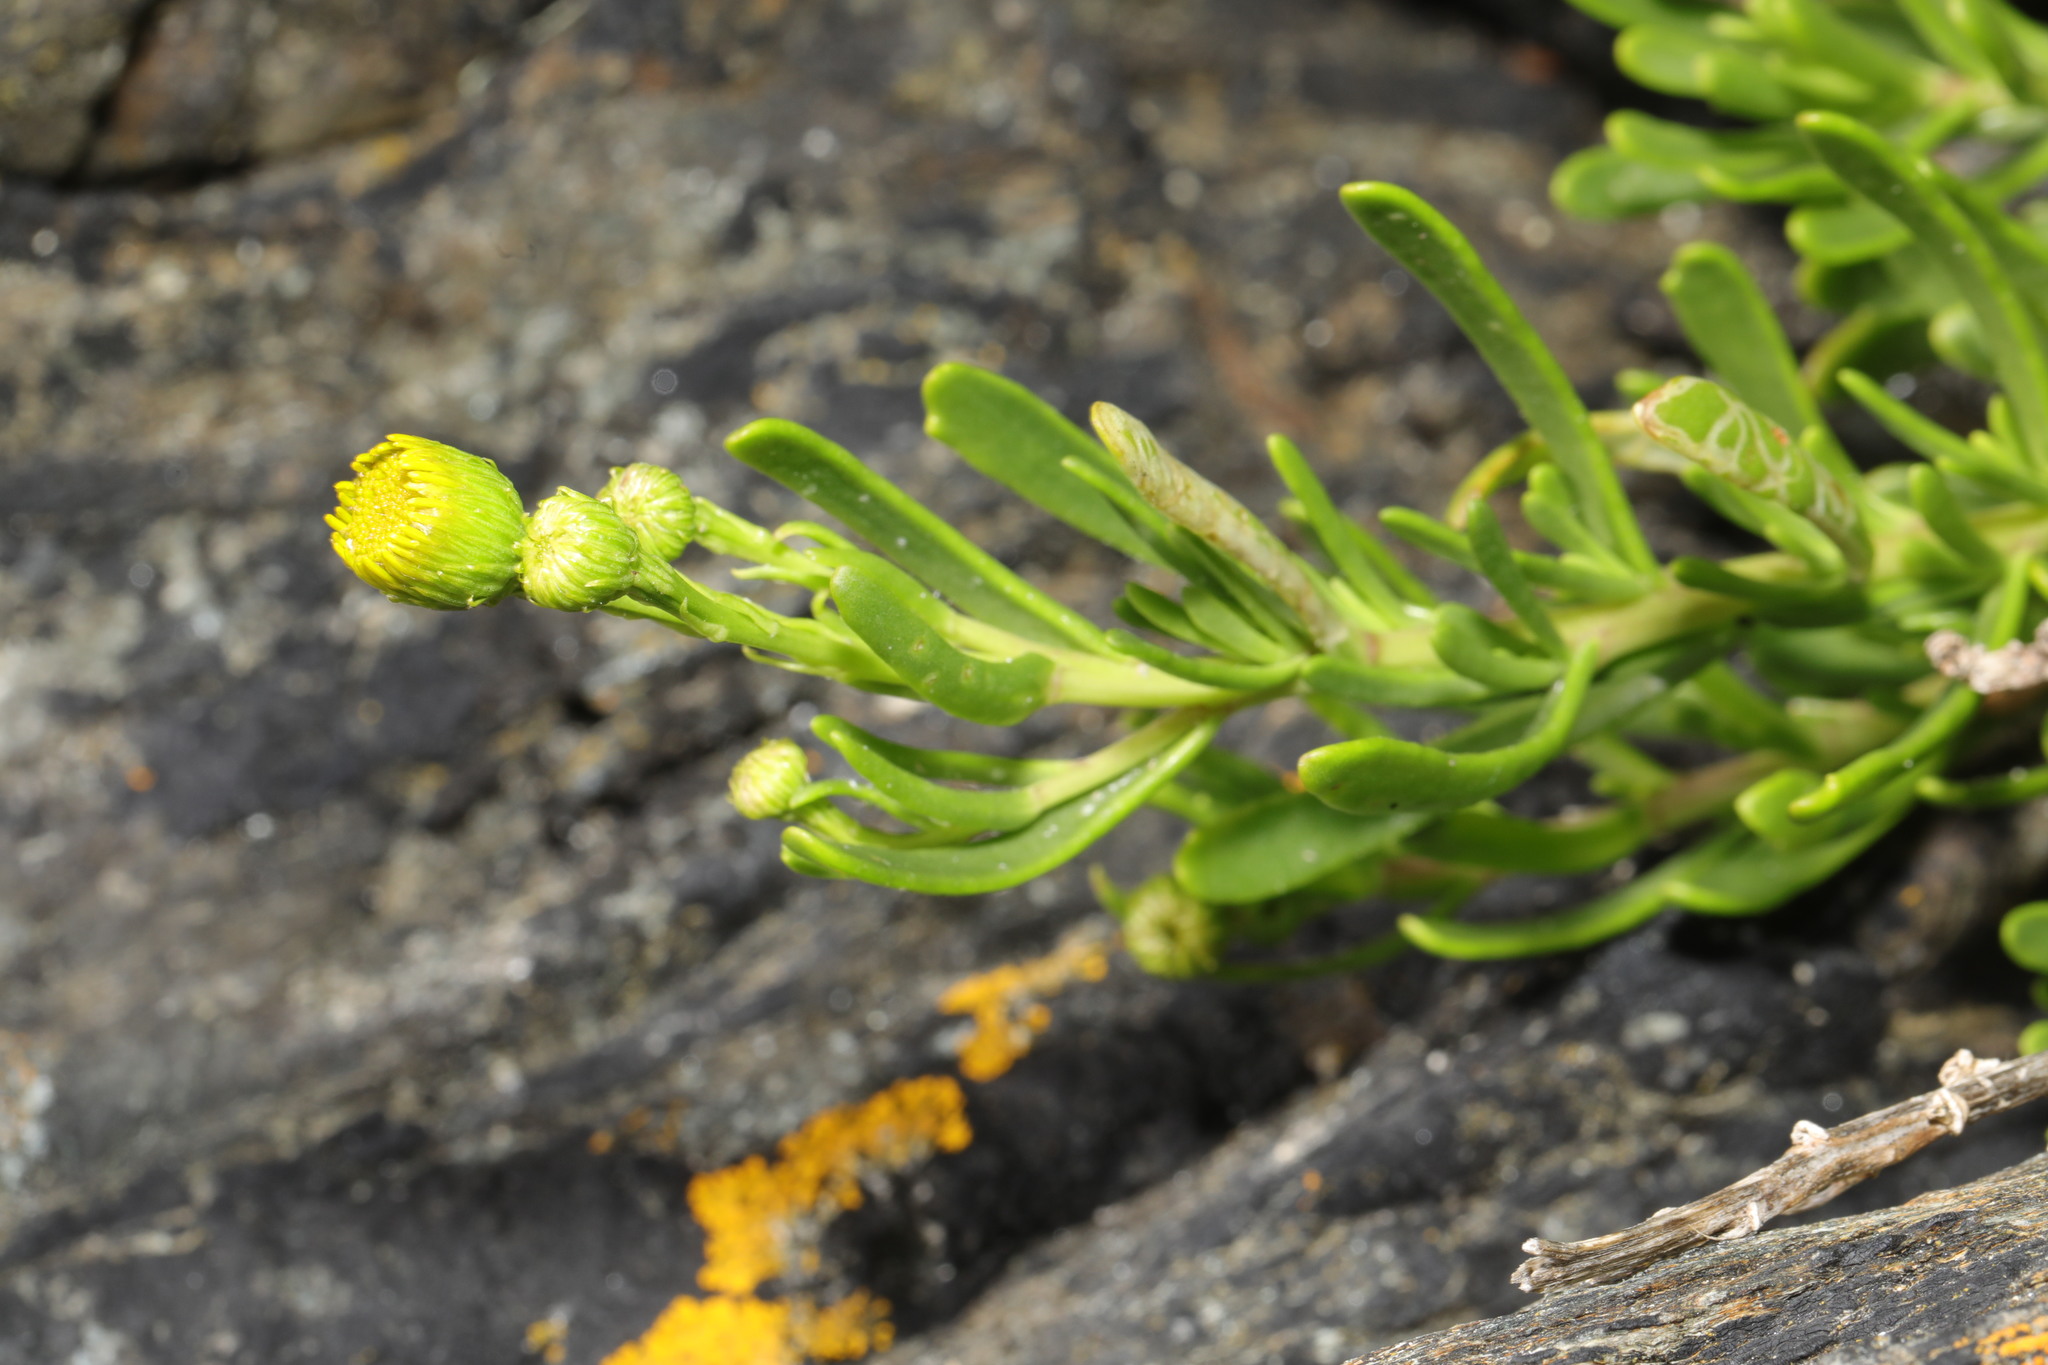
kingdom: Plantae
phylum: Tracheophyta
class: Magnoliopsida
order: Asterales
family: Asteraceae
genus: Limbarda
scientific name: Limbarda crithmoides
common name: Golden samphire
